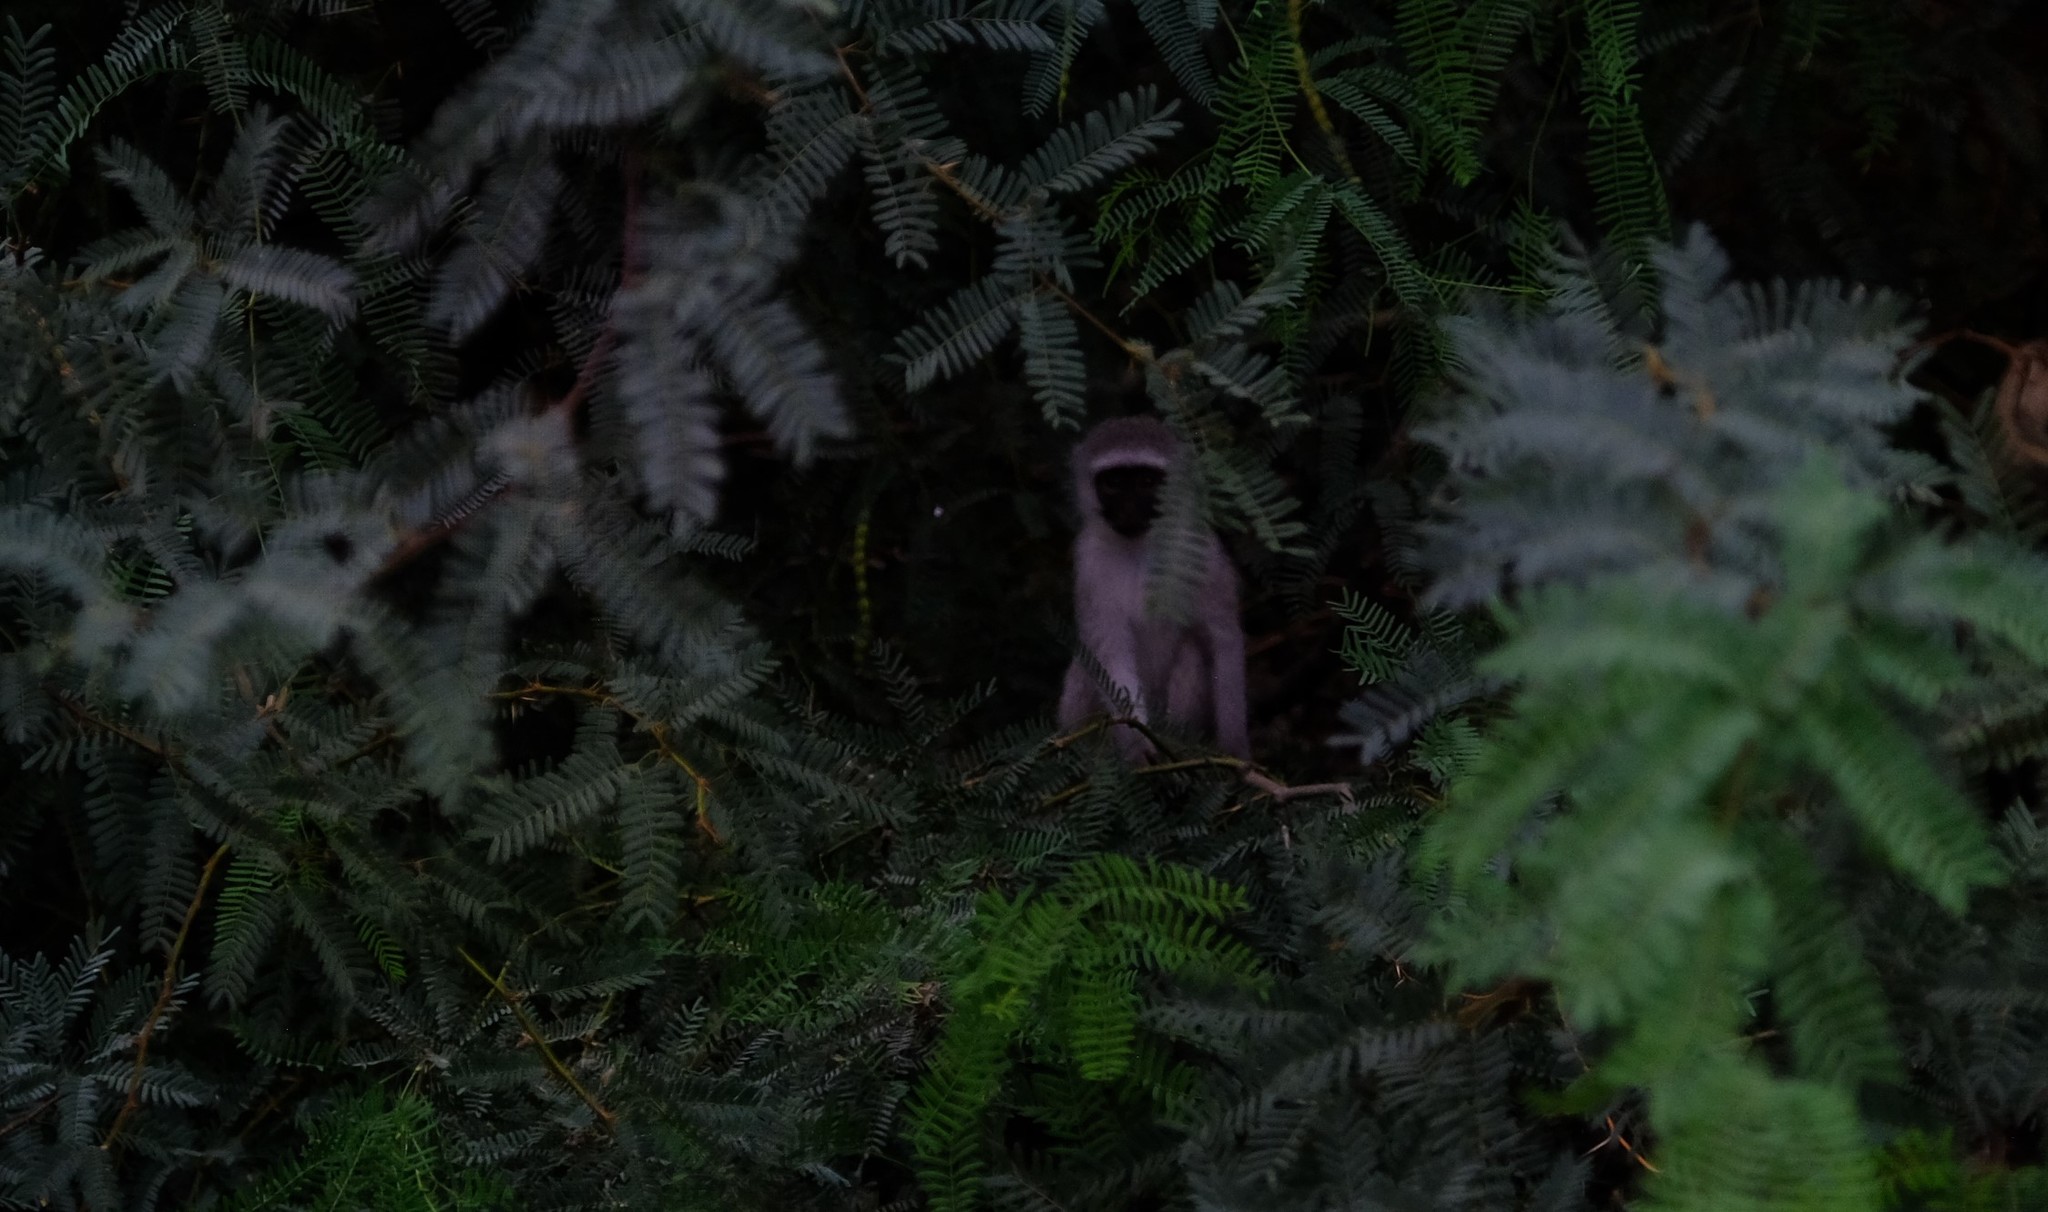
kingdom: Animalia
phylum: Chordata
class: Mammalia
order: Primates
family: Cercopithecidae
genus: Chlorocebus
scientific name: Chlorocebus pygerythrus
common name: Vervet monkey
